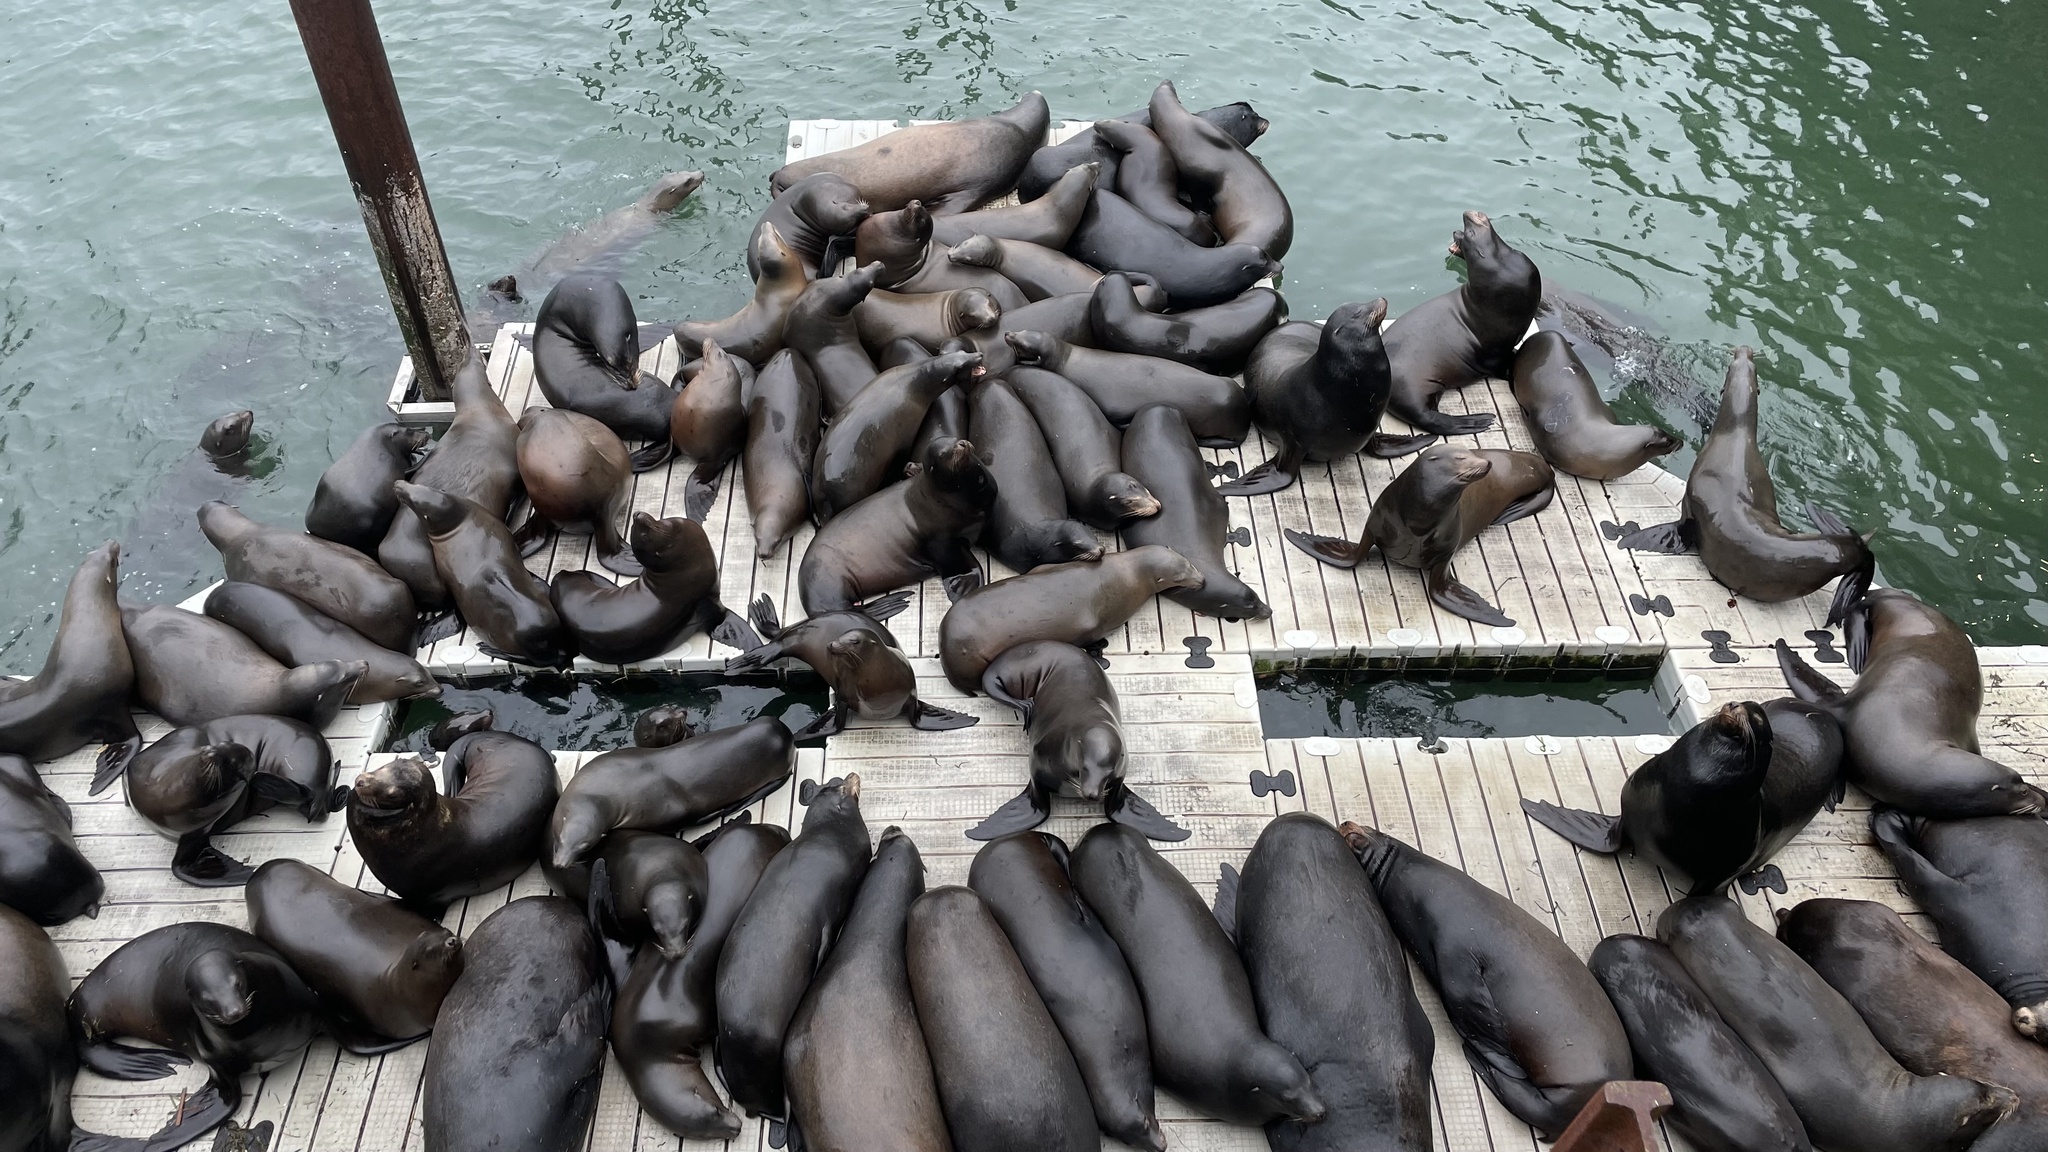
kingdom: Animalia
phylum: Chordata
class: Mammalia
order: Carnivora
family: Otariidae
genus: Zalophus
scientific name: Zalophus californianus
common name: California sea lion
